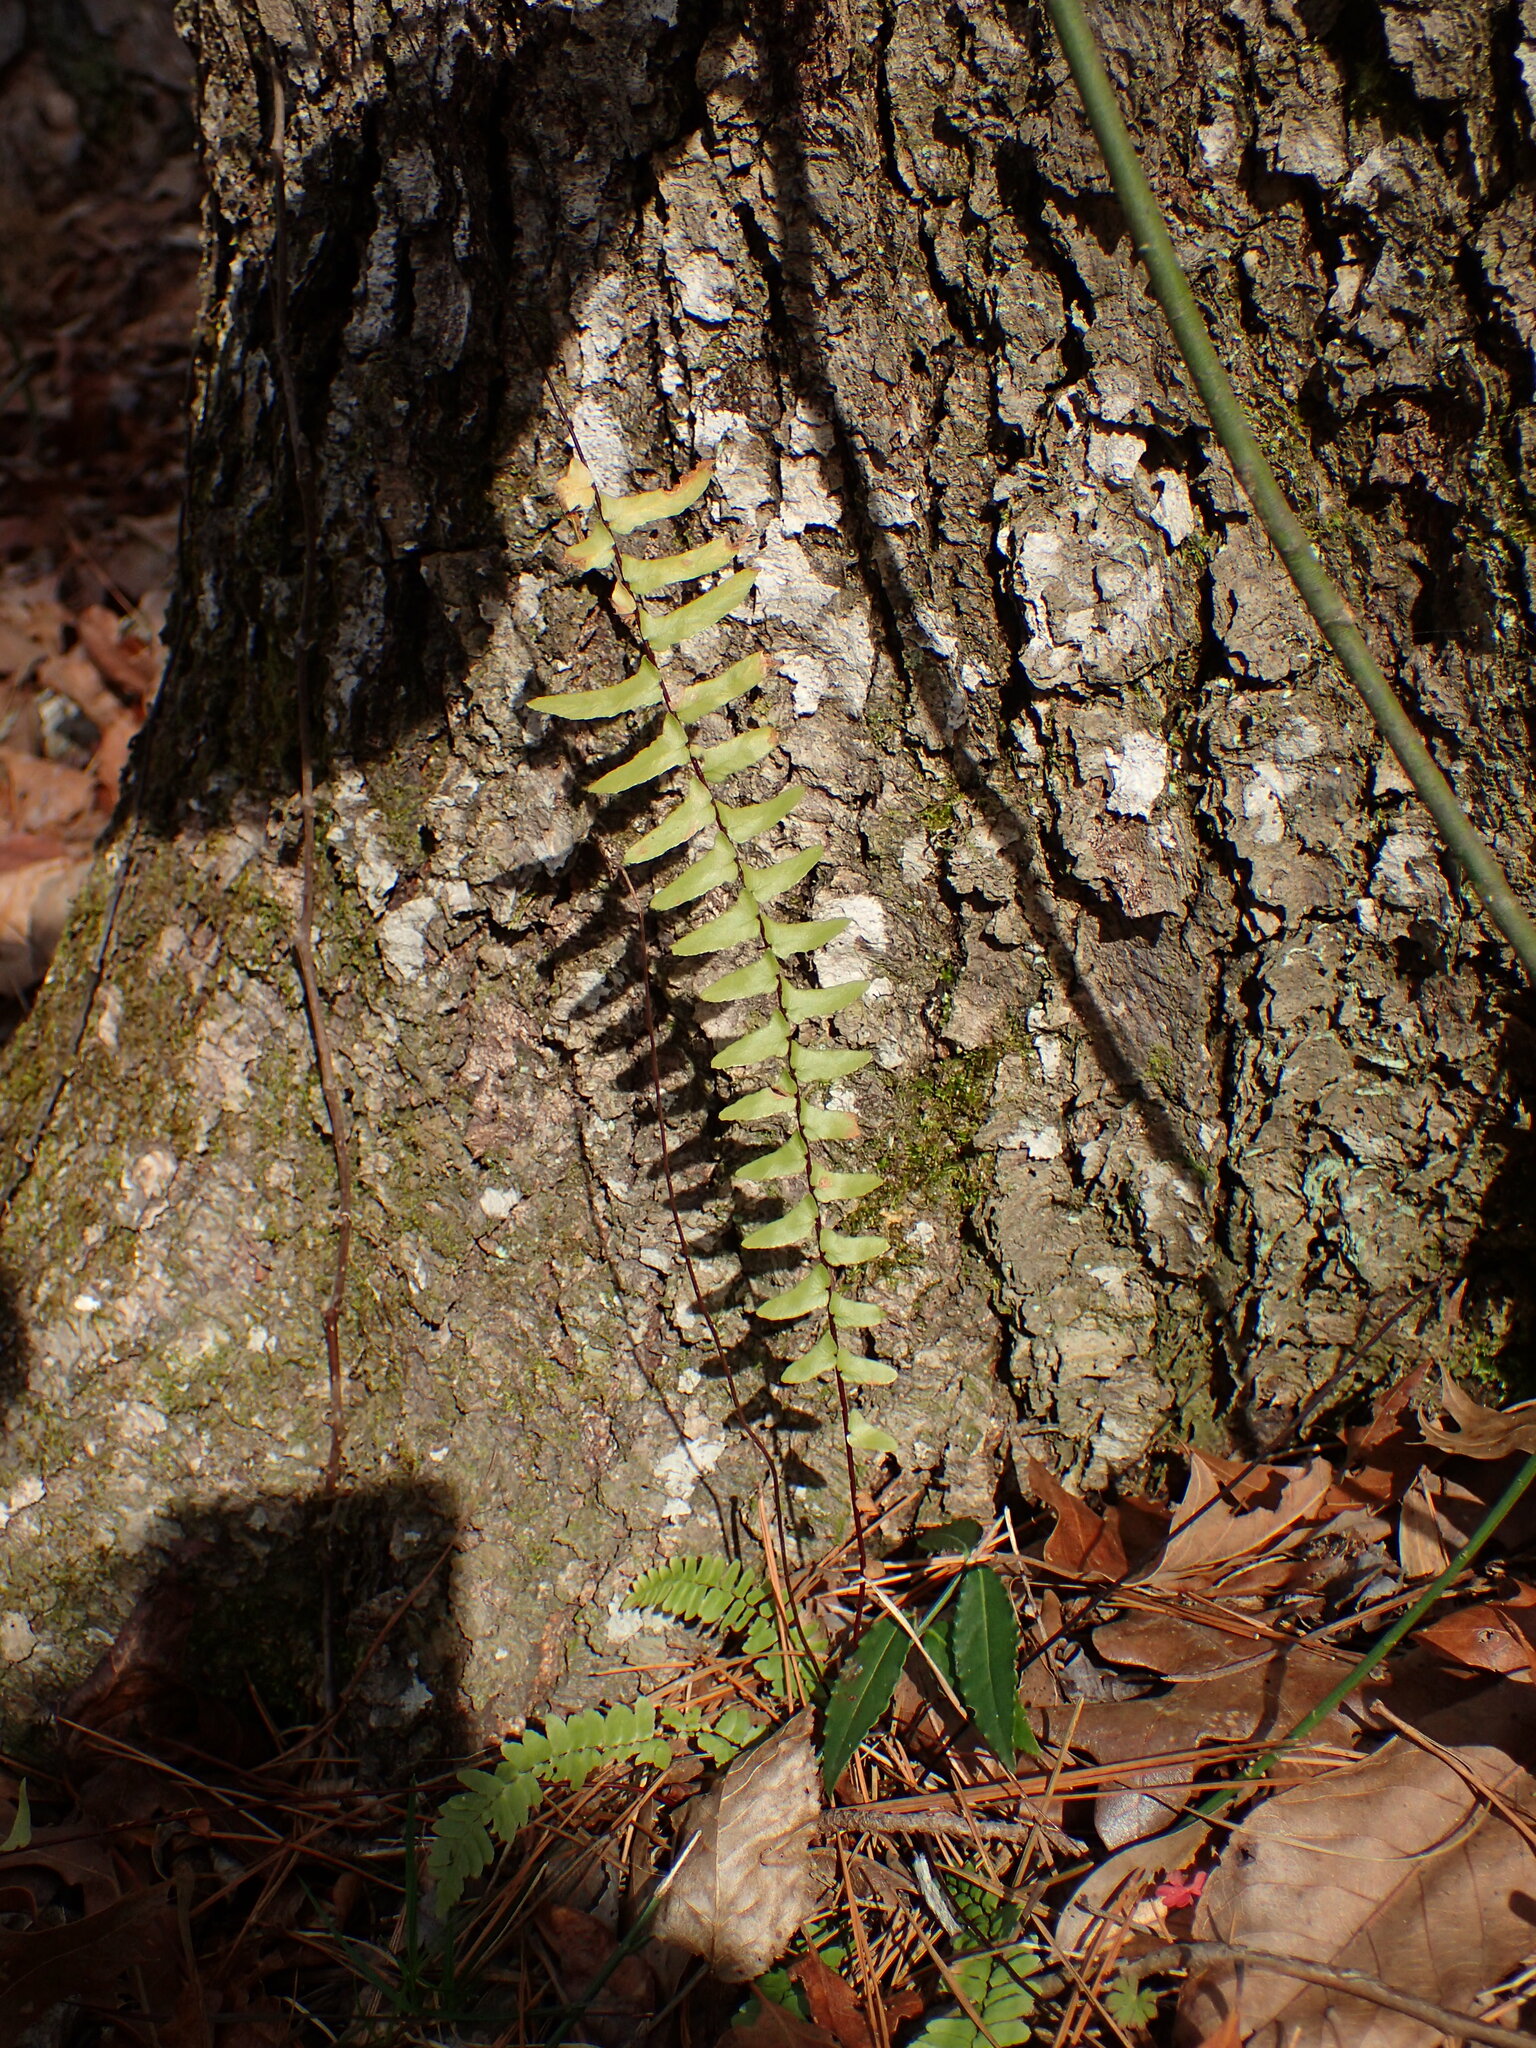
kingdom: Plantae
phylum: Tracheophyta
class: Polypodiopsida
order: Polypodiales
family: Aspleniaceae
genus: Asplenium
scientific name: Asplenium platyneuron
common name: Ebony spleenwort
